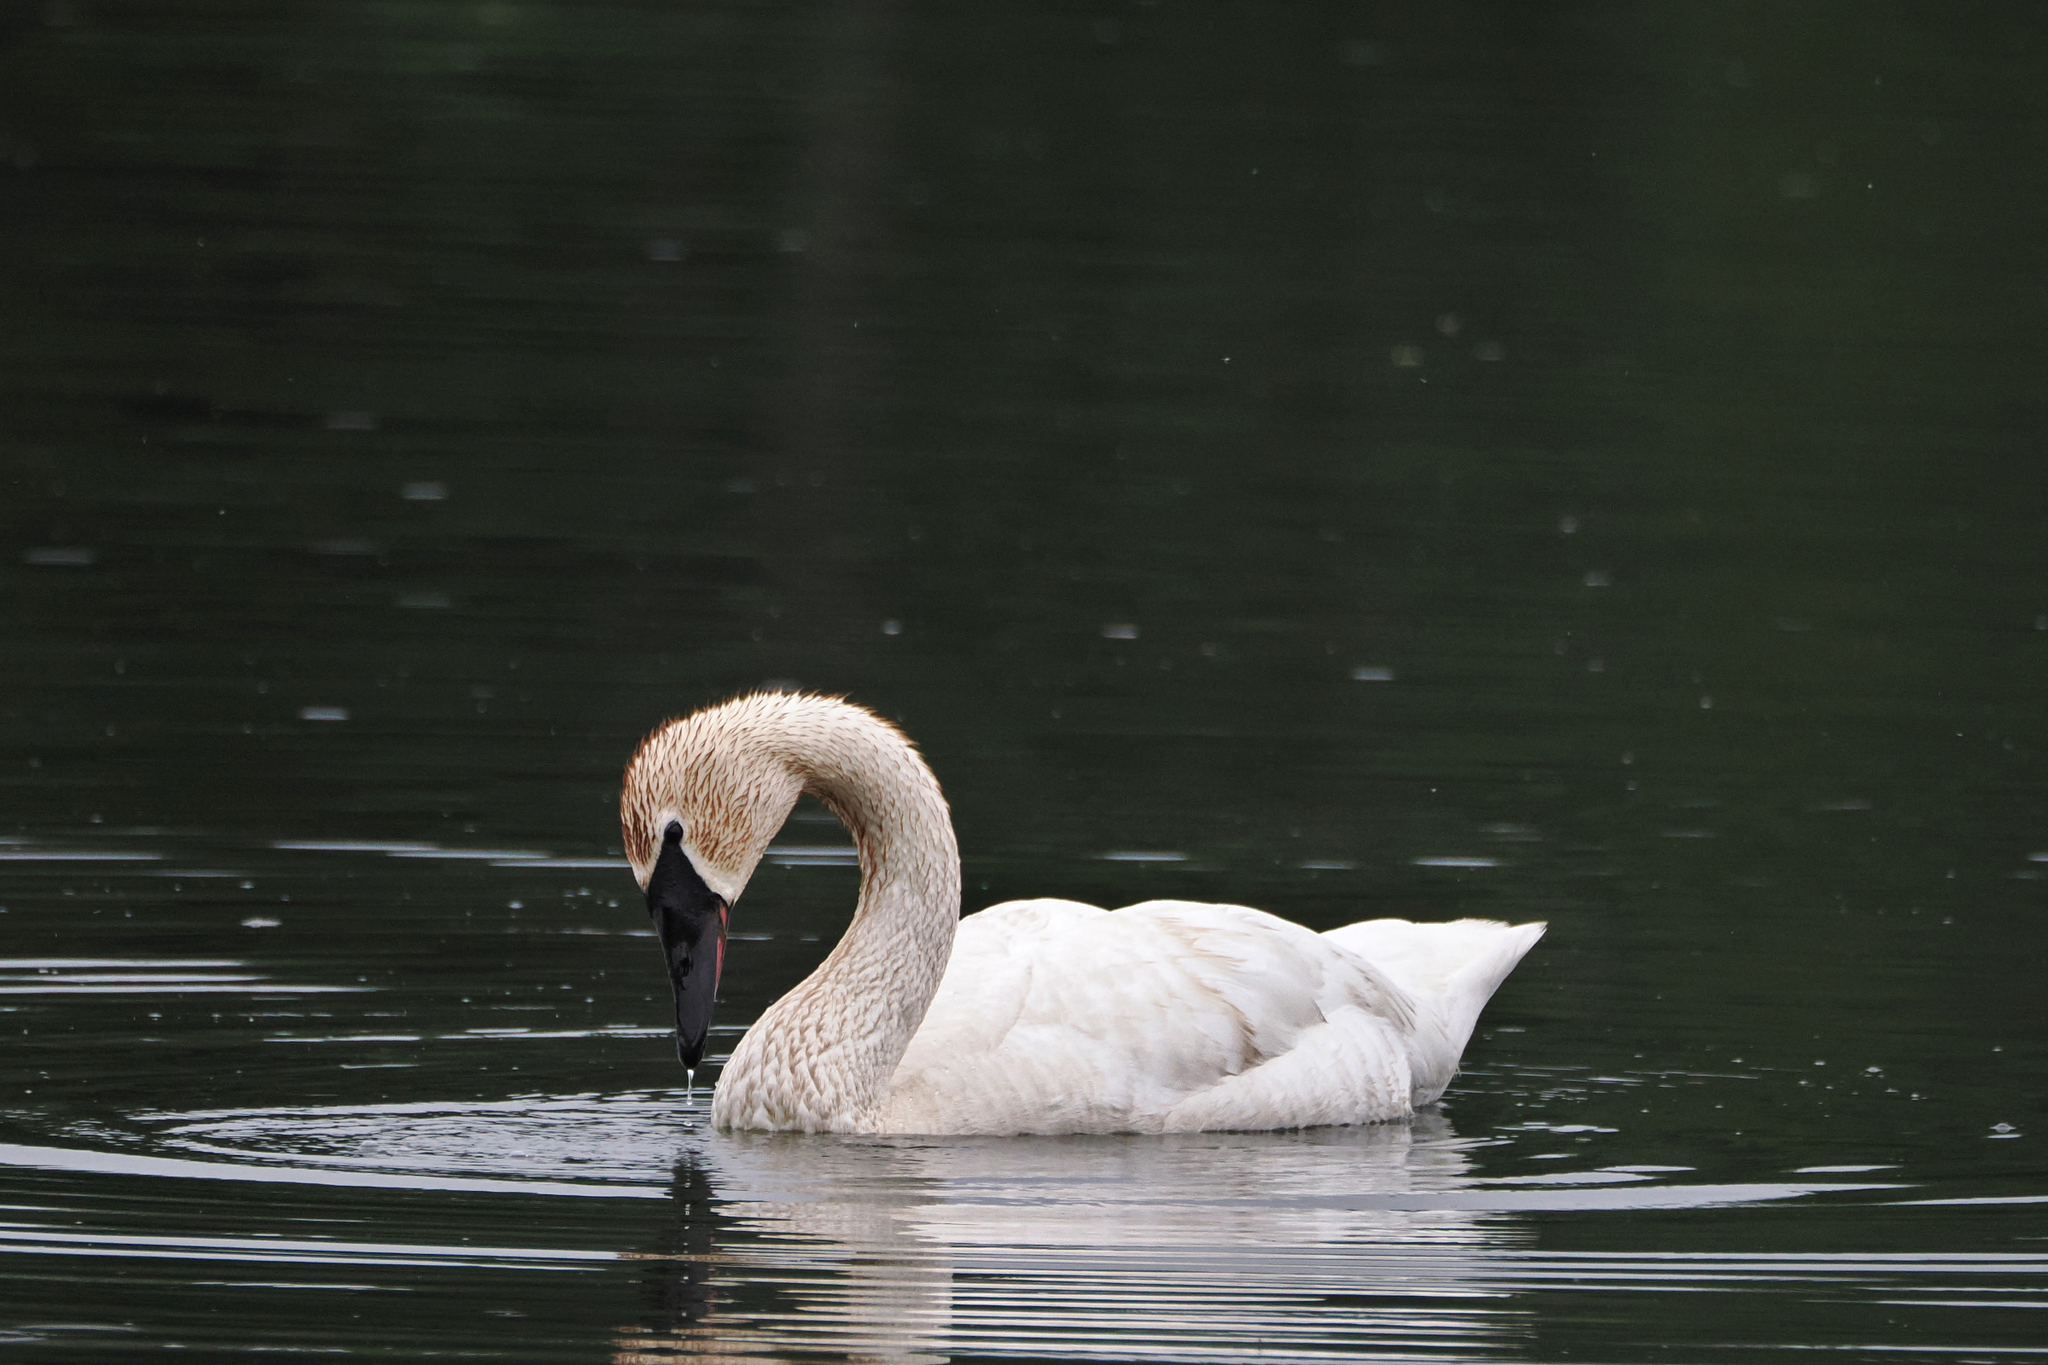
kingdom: Animalia
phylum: Chordata
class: Aves
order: Anseriformes
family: Anatidae
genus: Cygnus
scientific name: Cygnus buccinator
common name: Trumpeter swan
